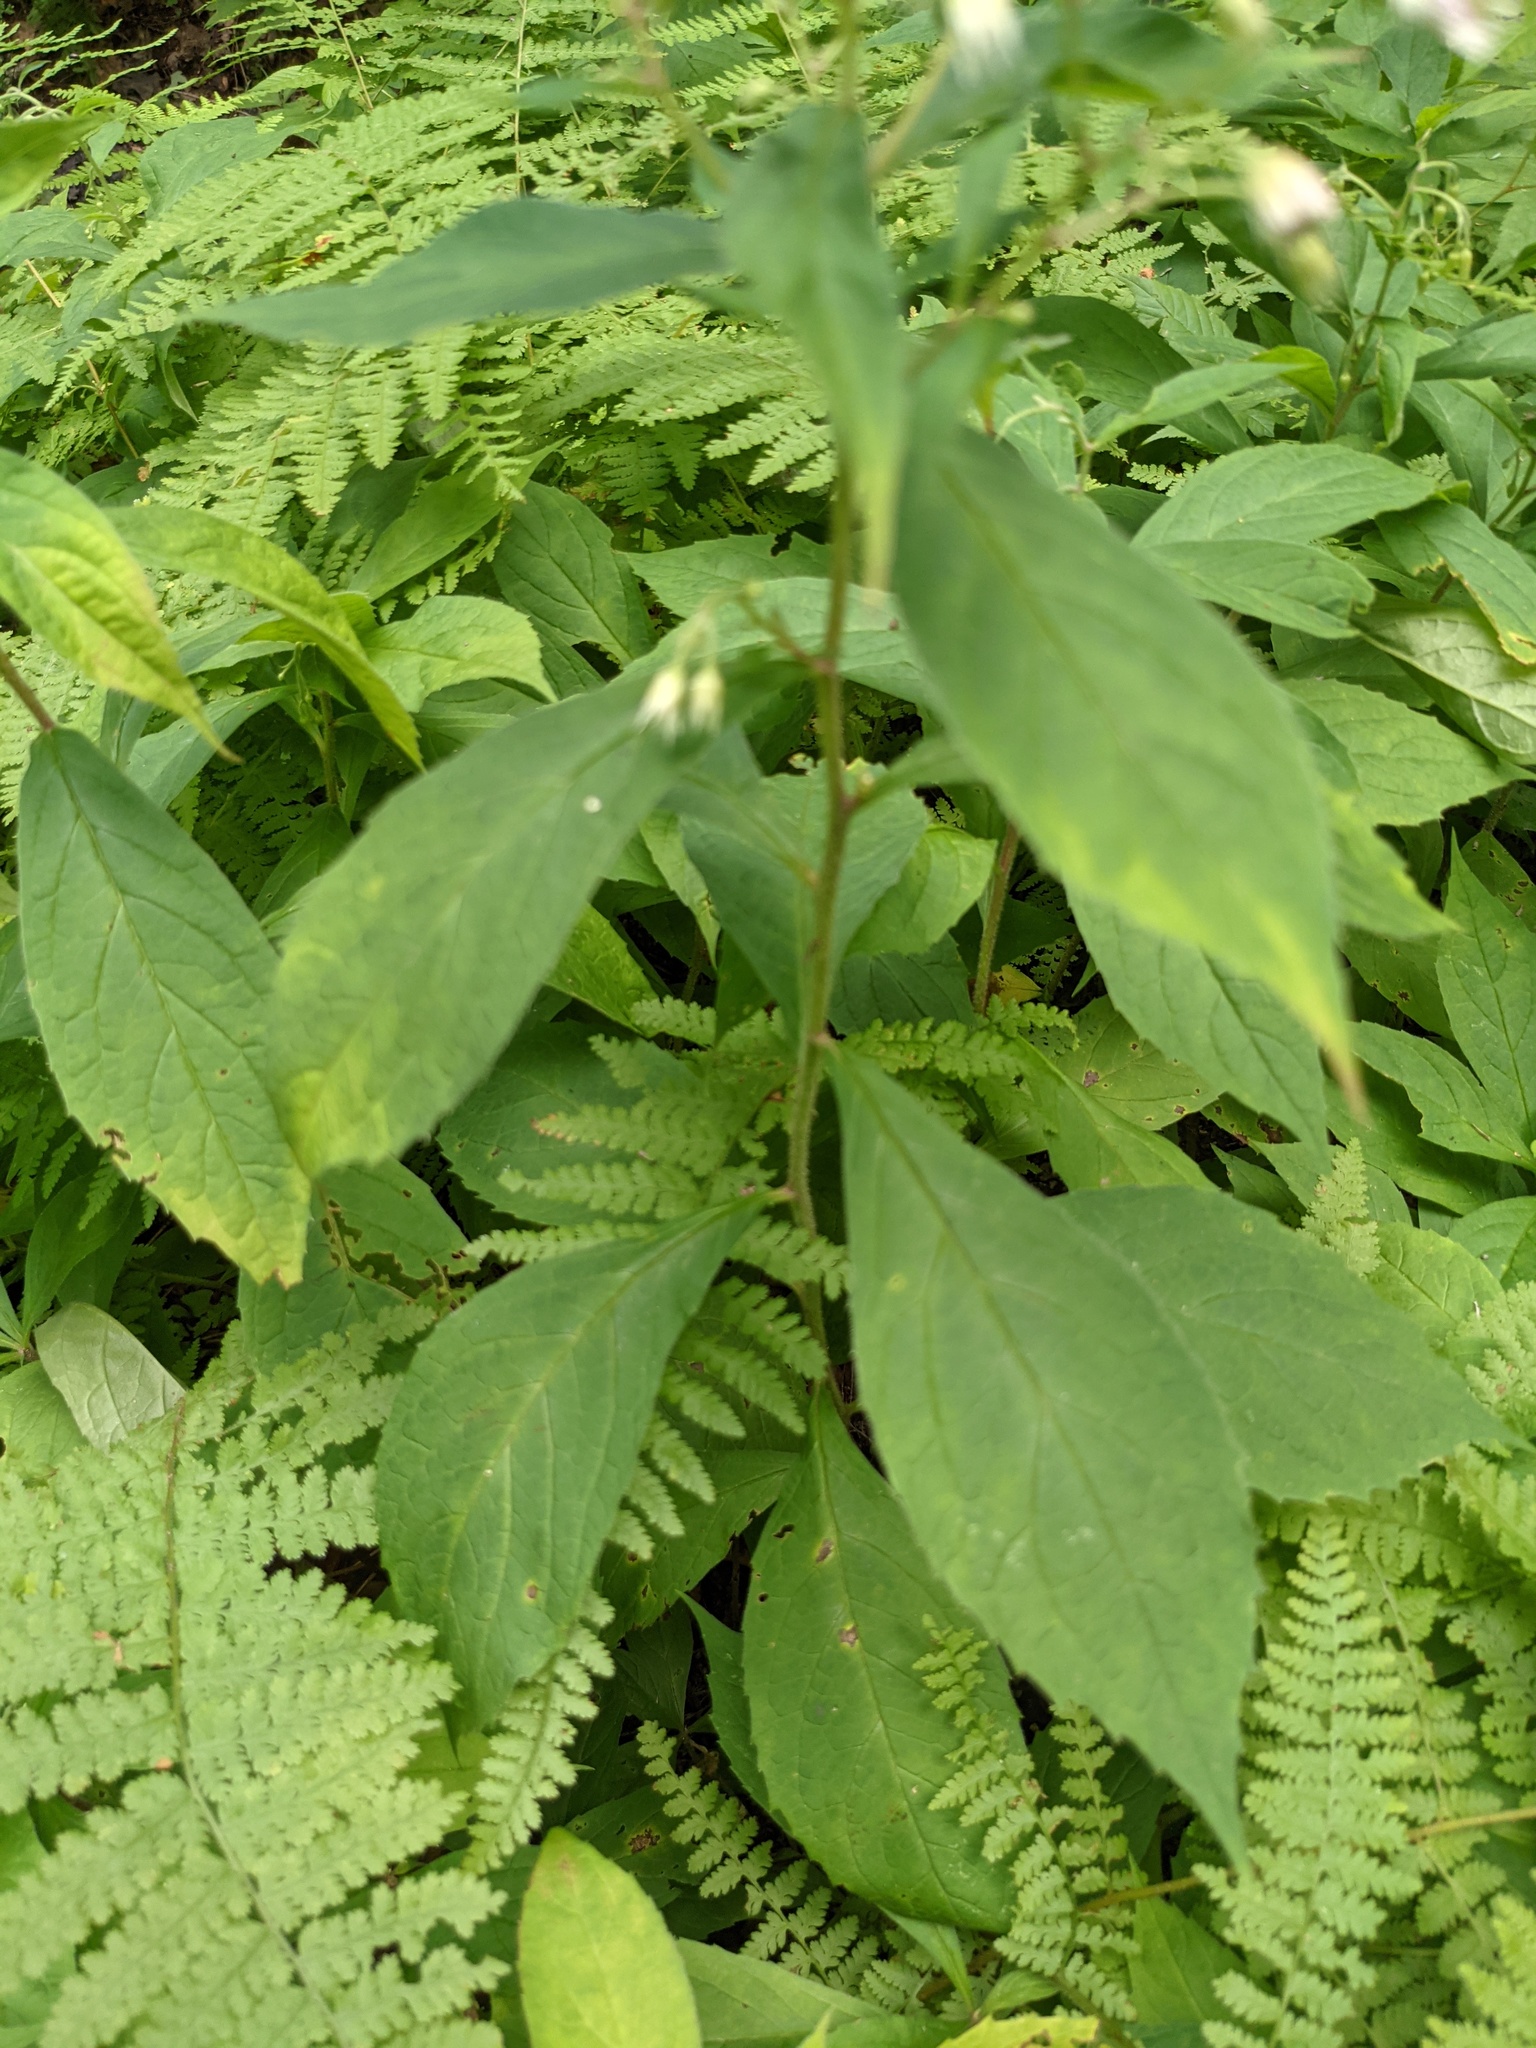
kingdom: Plantae
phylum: Tracheophyta
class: Magnoliopsida
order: Asterales
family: Asteraceae
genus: Oclemena
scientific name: Oclemena acuminata
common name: Mountain aster
